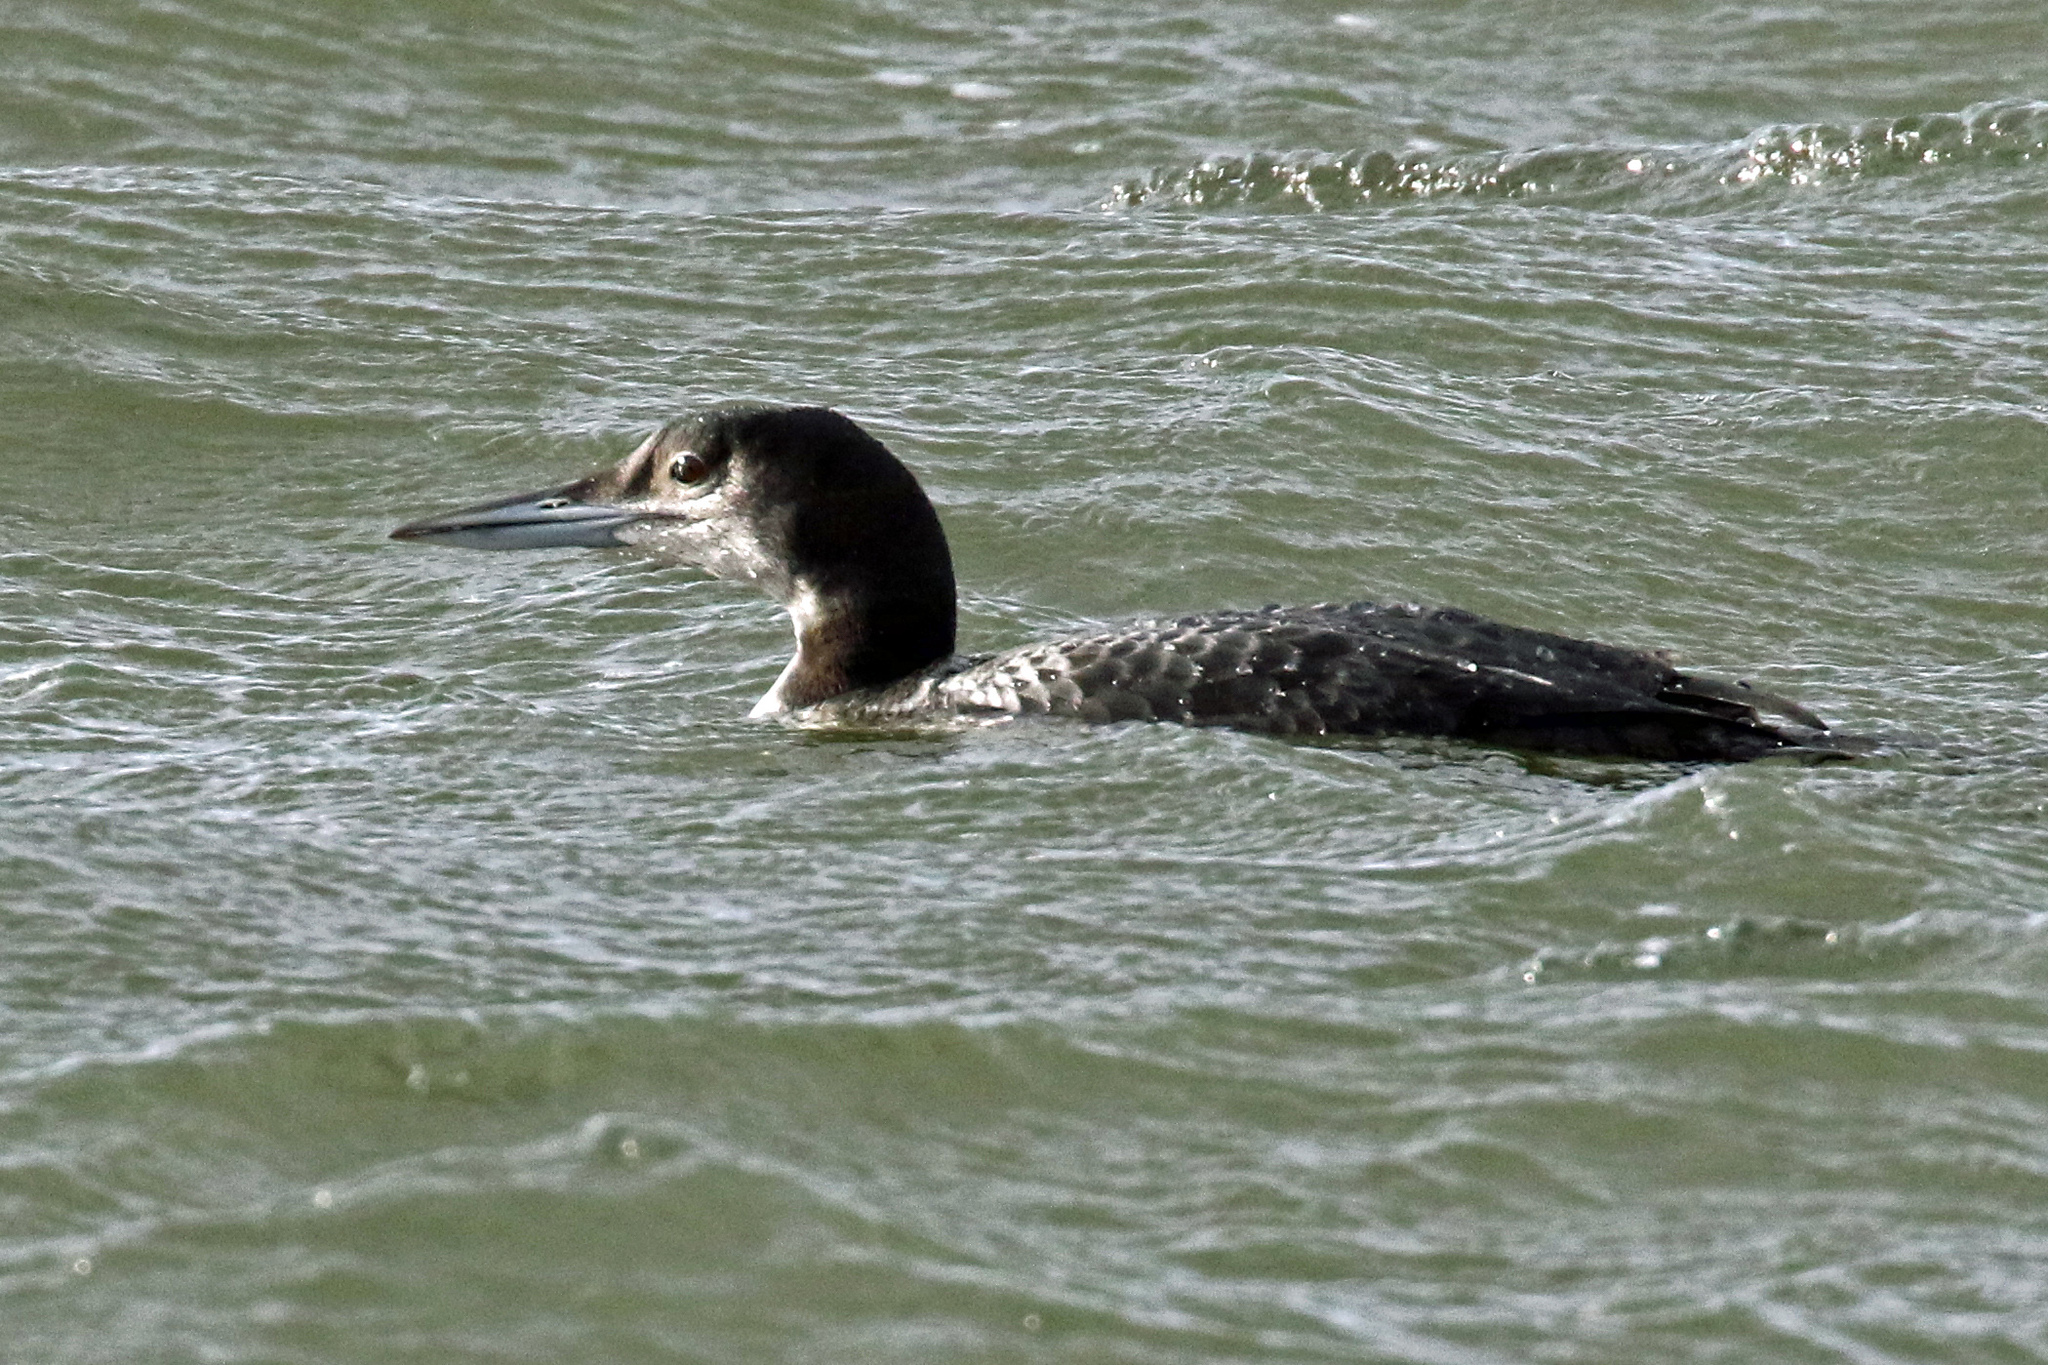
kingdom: Animalia
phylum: Chordata
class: Aves
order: Gaviiformes
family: Gaviidae
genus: Gavia
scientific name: Gavia immer
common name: Common loon
